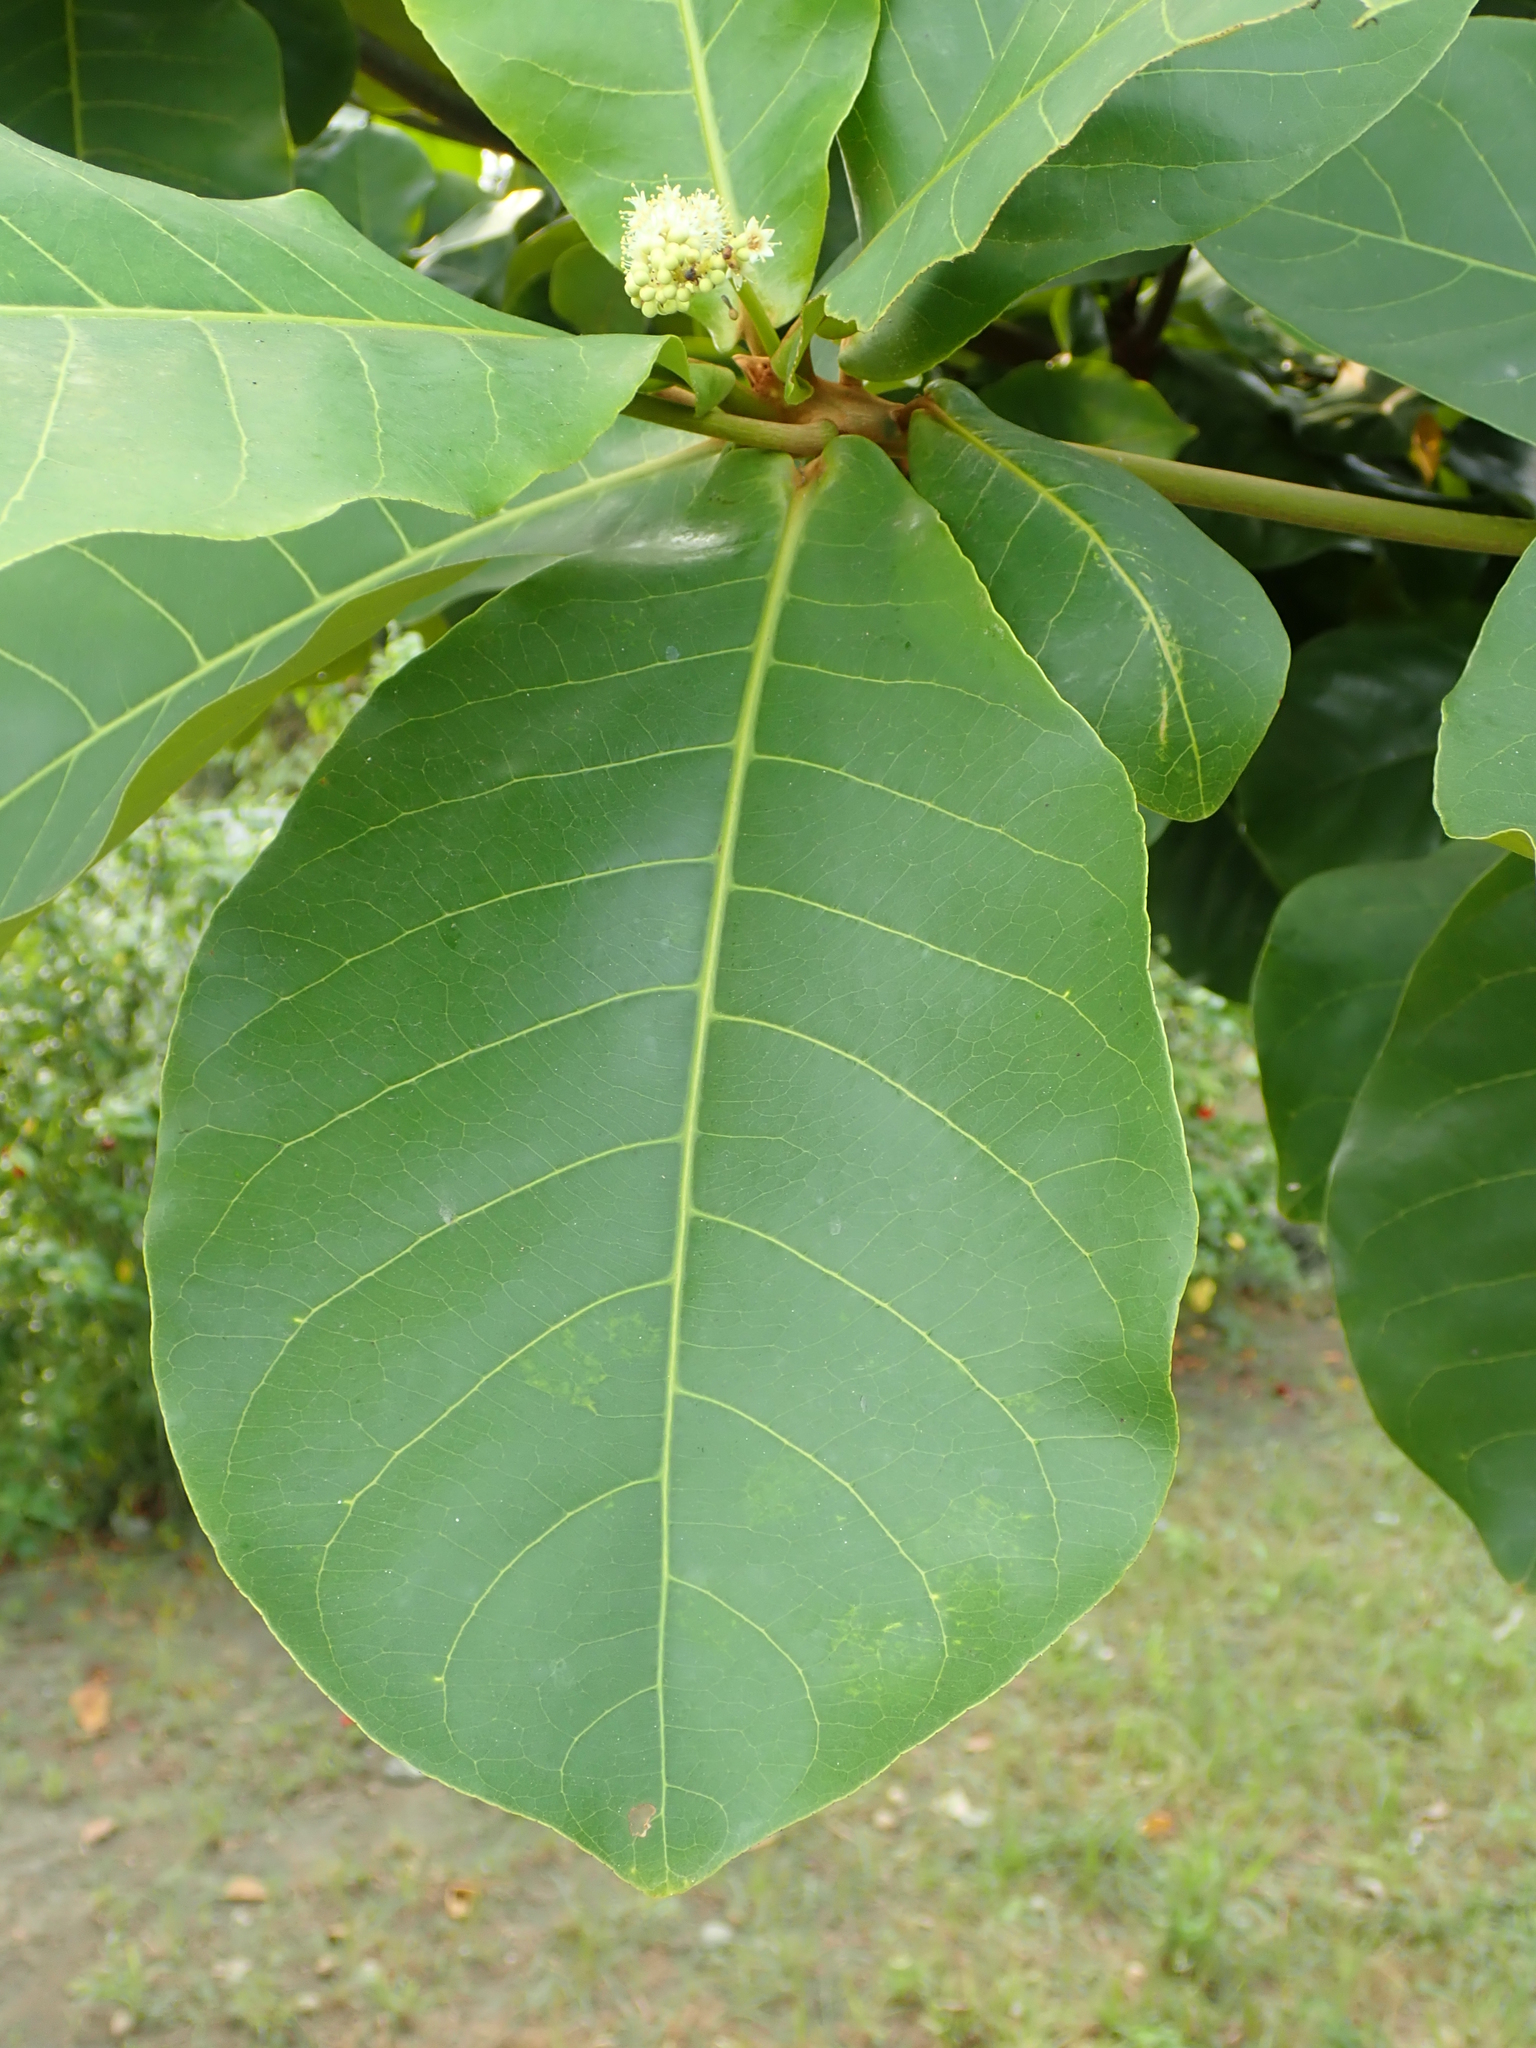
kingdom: Plantae
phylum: Tracheophyta
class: Magnoliopsida
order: Myrtales
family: Combretaceae
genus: Terminalia
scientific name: Terminalia catappa
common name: Tropical almond
